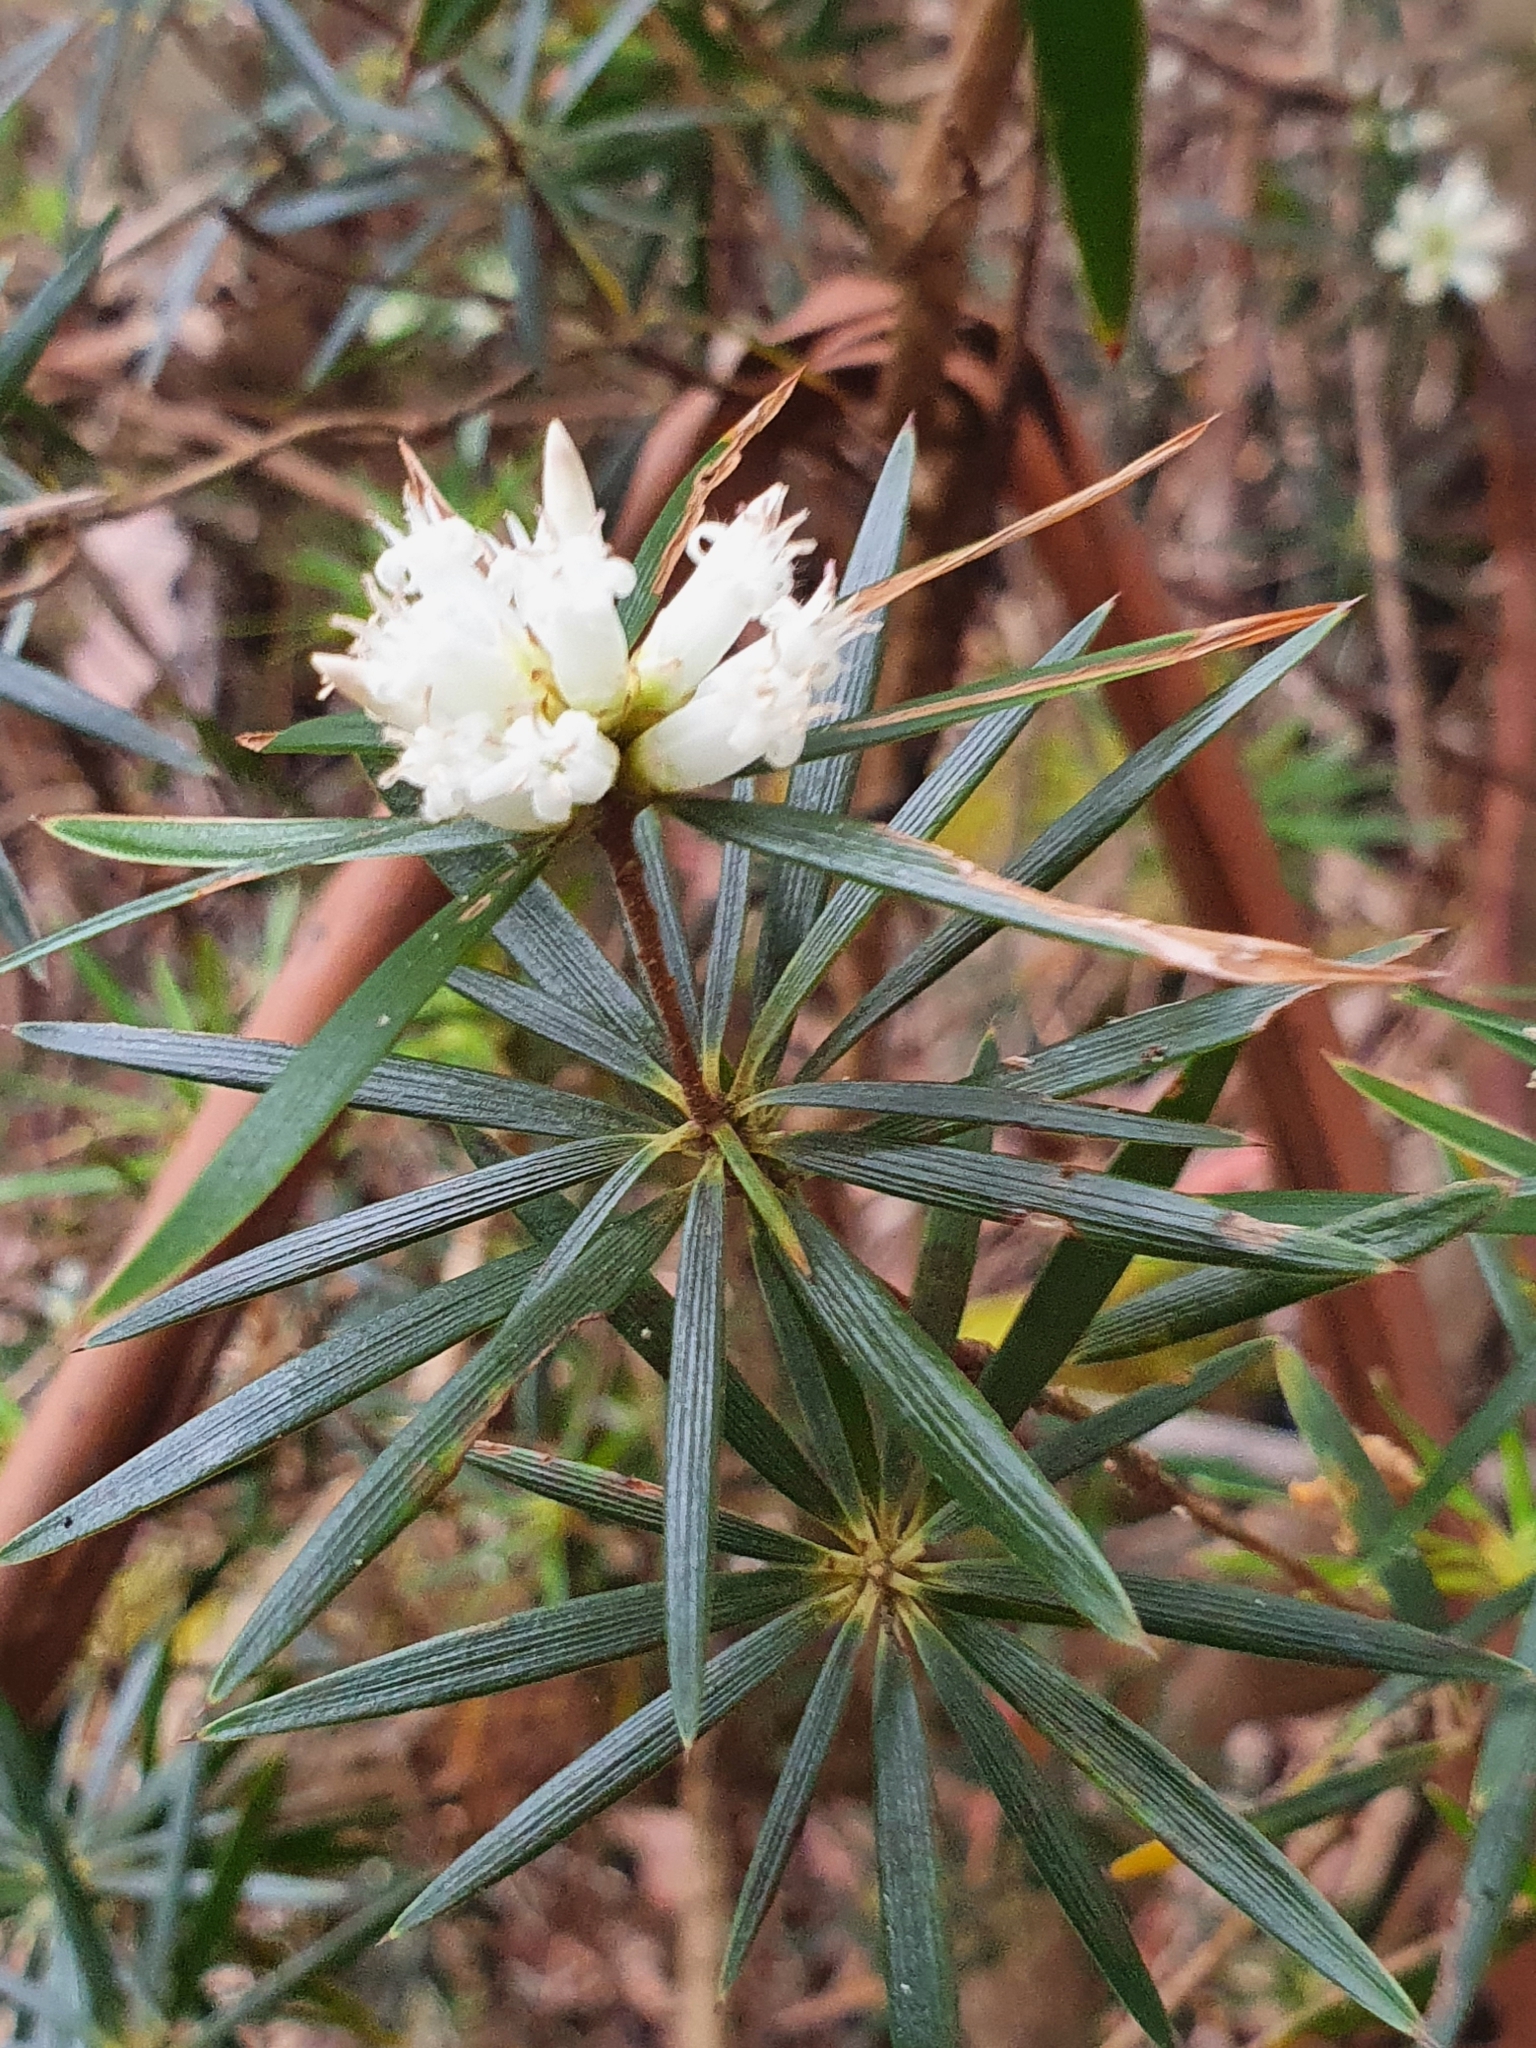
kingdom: Plantae
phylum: Tracheophyta
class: Magnoliopsida
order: Ericales
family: Ericaceae
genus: Cyathodes
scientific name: Cyathodes glauca
